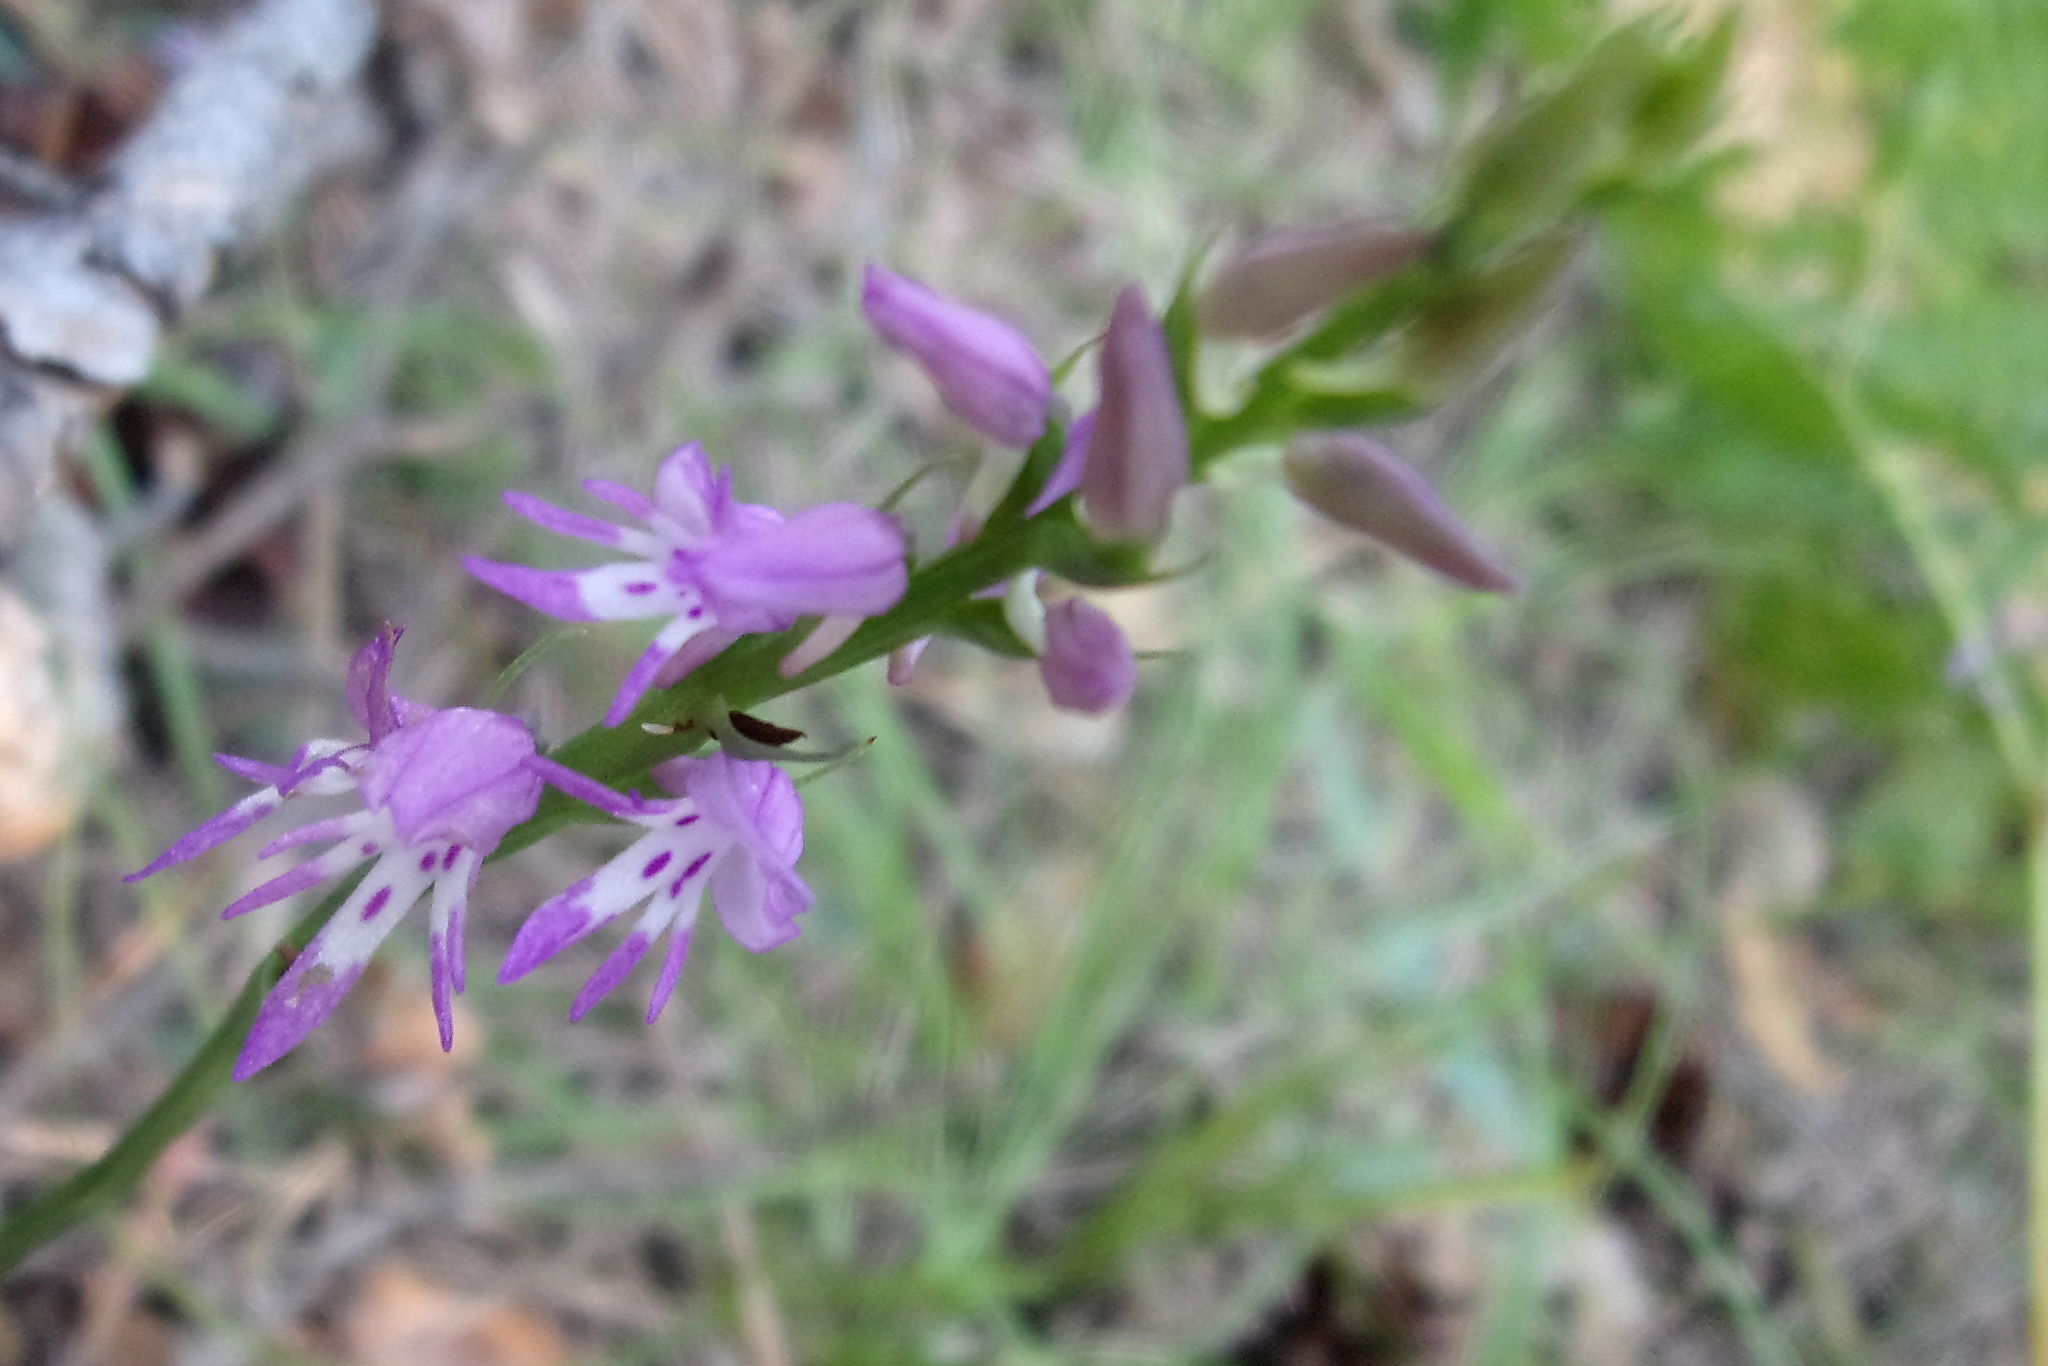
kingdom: Plantae
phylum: Tracheophyta
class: Liliopsida
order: Asparagales
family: Orchidaceae
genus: Hemipilia
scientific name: Hemipilia cucullata
